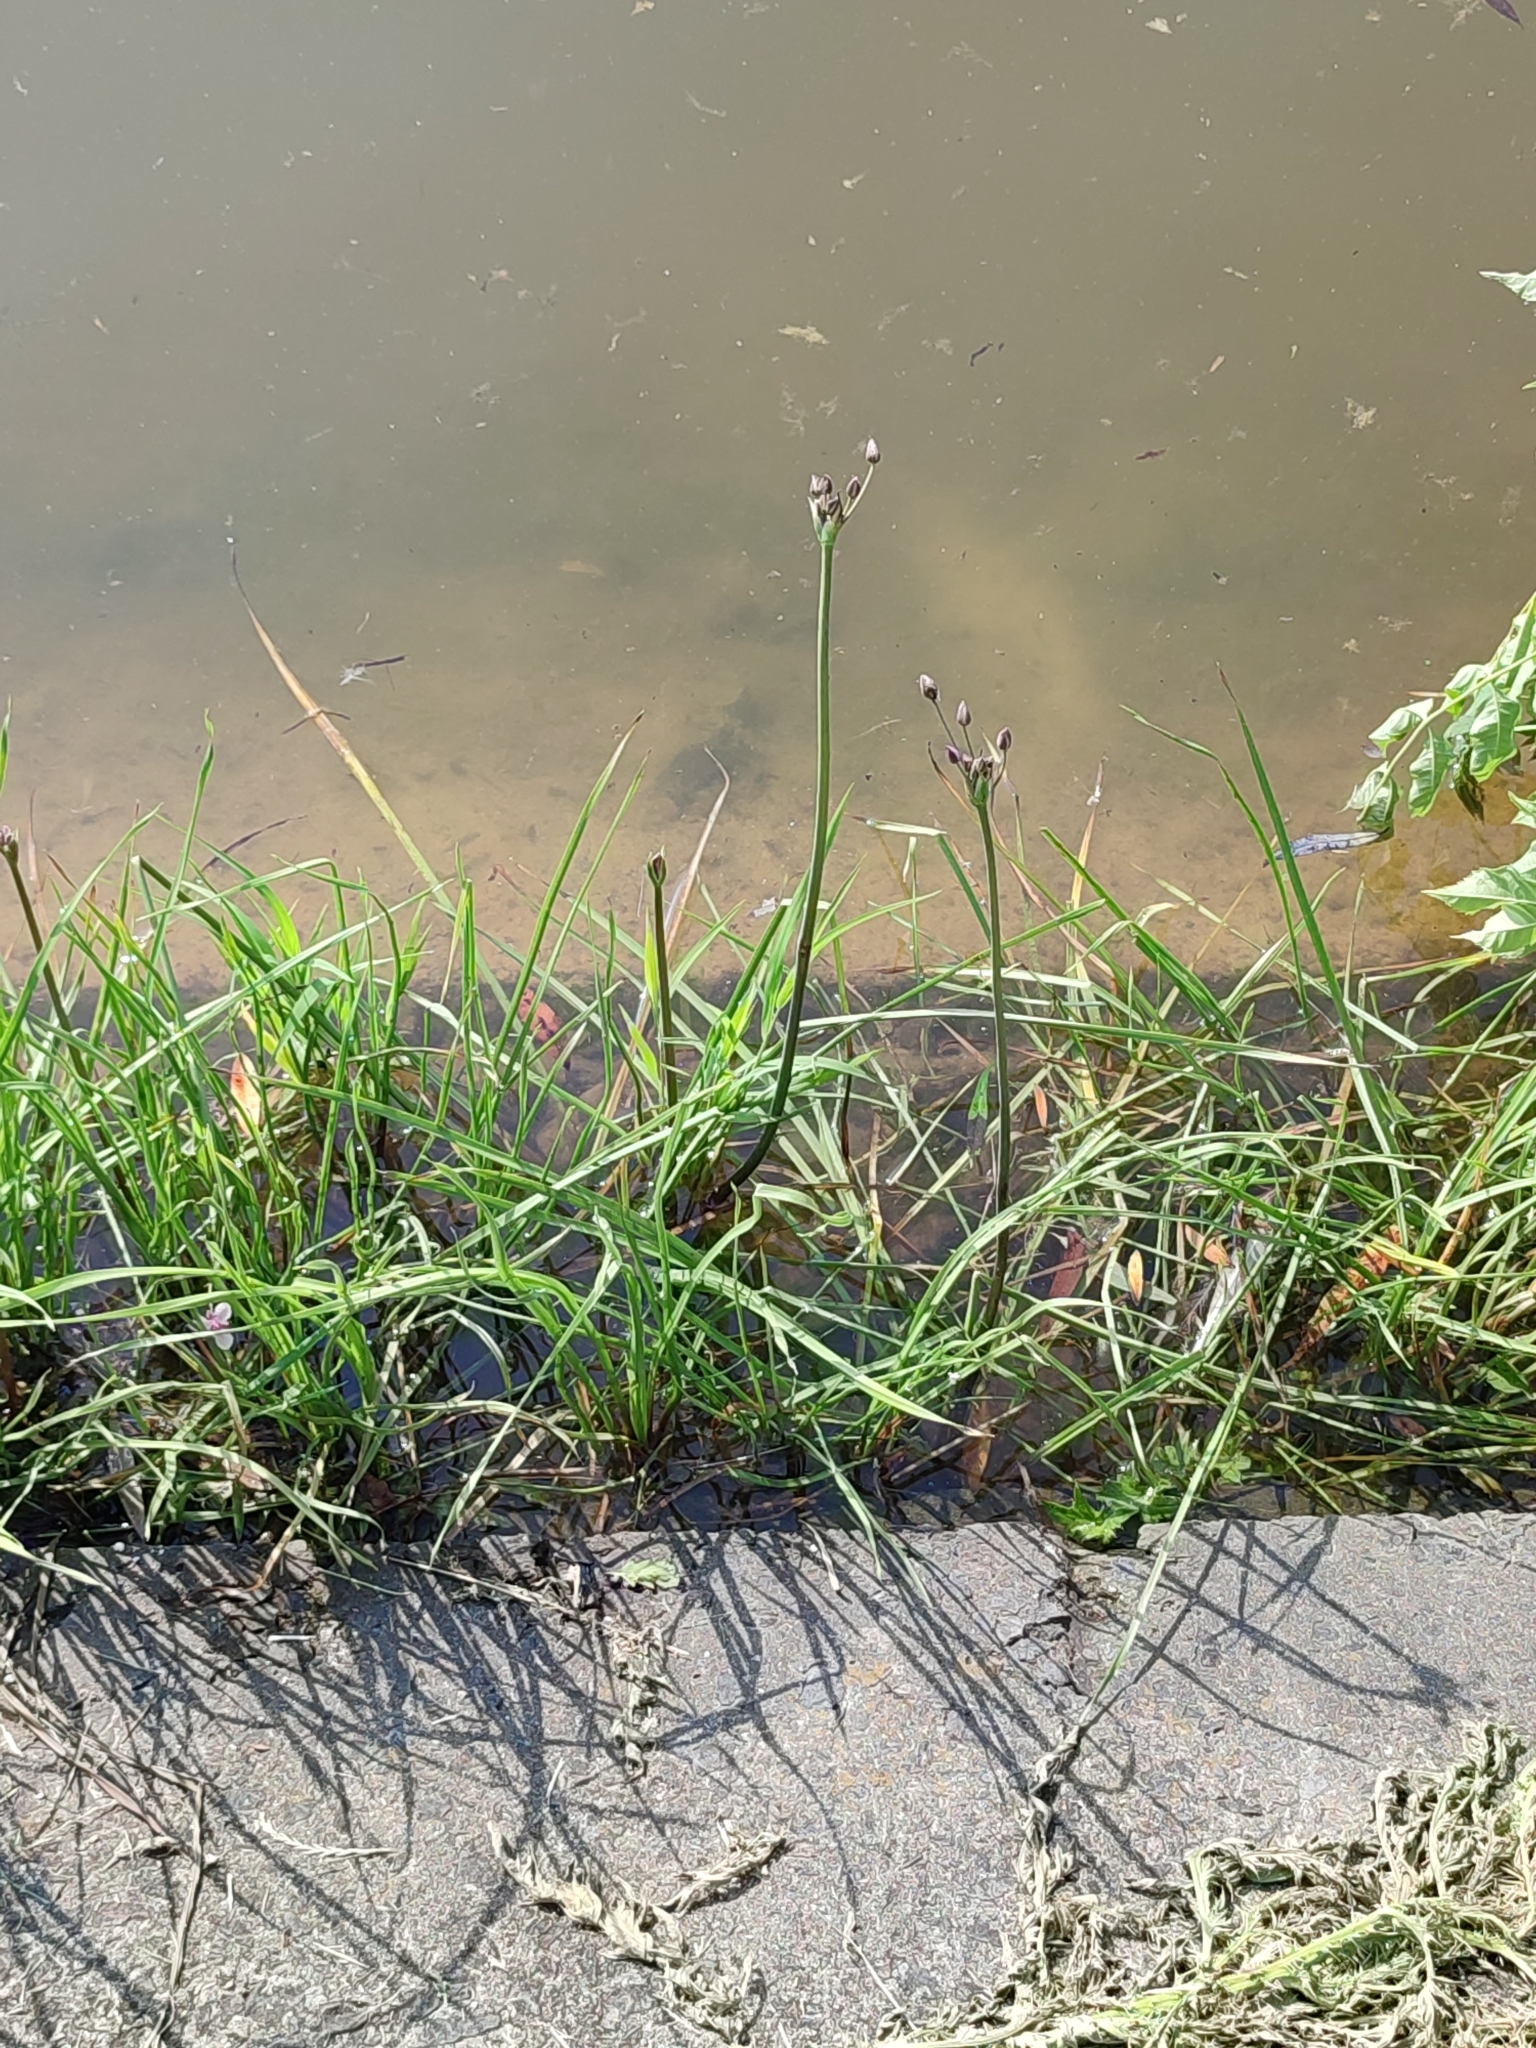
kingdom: Plantae
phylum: Tracheophyta
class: Liliopsida
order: Alismatales
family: Butomaceae
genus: Butomus
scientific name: Butomus umbellatus
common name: Flowering-rush
